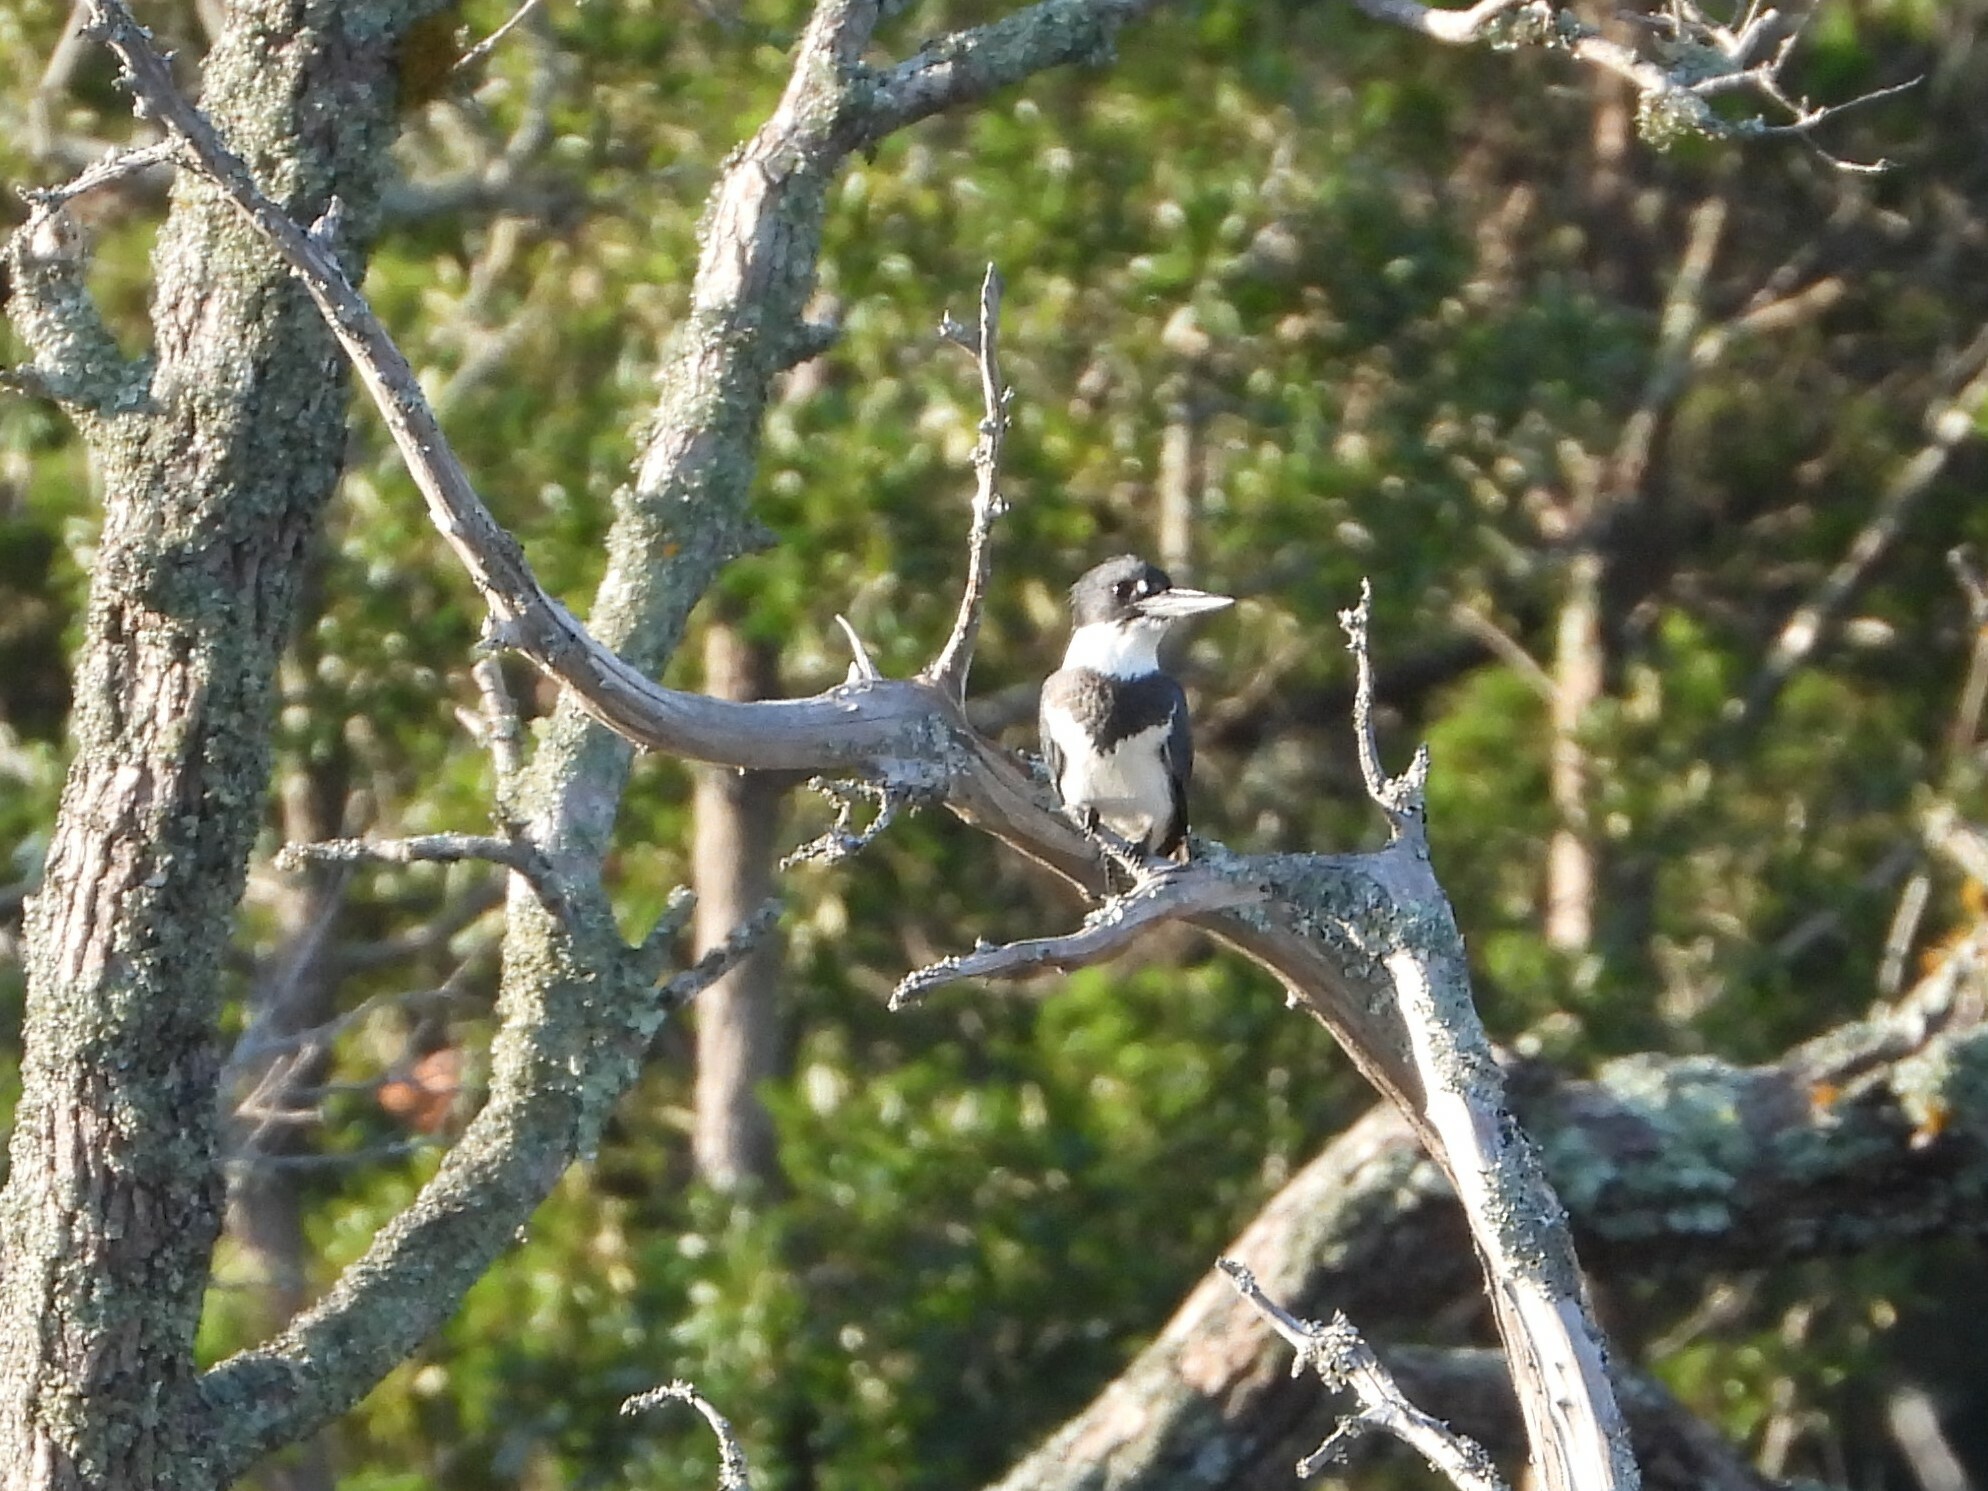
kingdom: Animalia
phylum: Chordata
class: Aves
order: Coraciiformes
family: Alcedinidae
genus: Megaceryle
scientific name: Megaceryle alcyon
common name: Belted kingfisher
